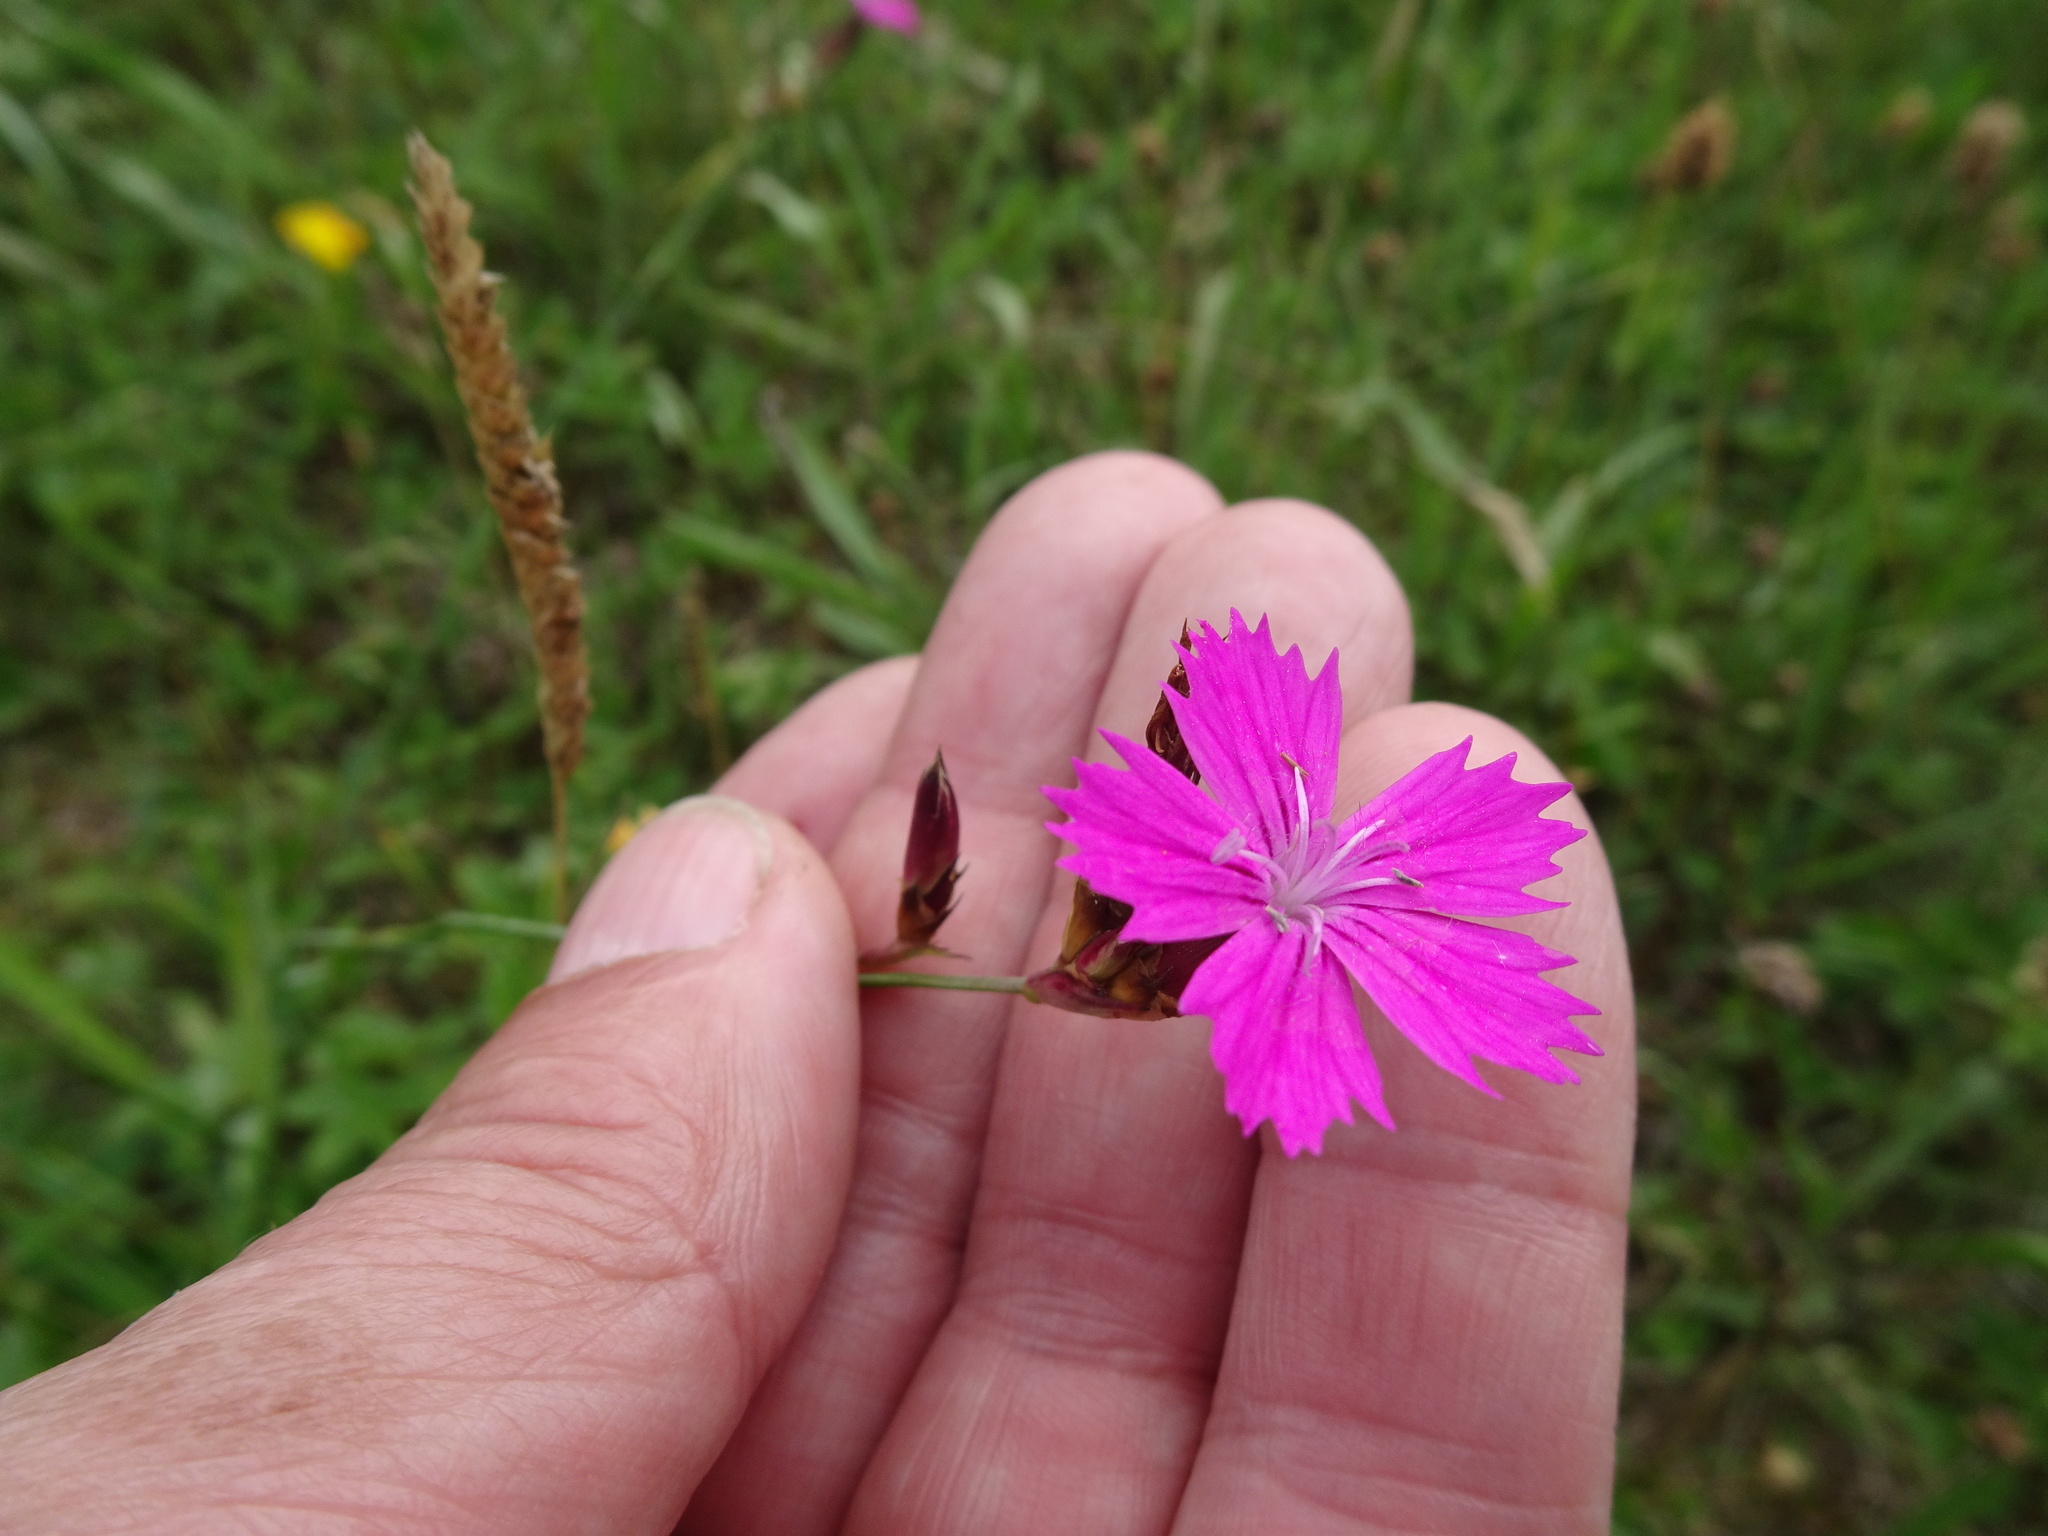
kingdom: Plantae
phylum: Tracheophyta
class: Magnoliopsida
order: Caryophyllales
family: Caryophyllaceae
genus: Dianthus
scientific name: Dianthus carthusianorum
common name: Carthusian pink
